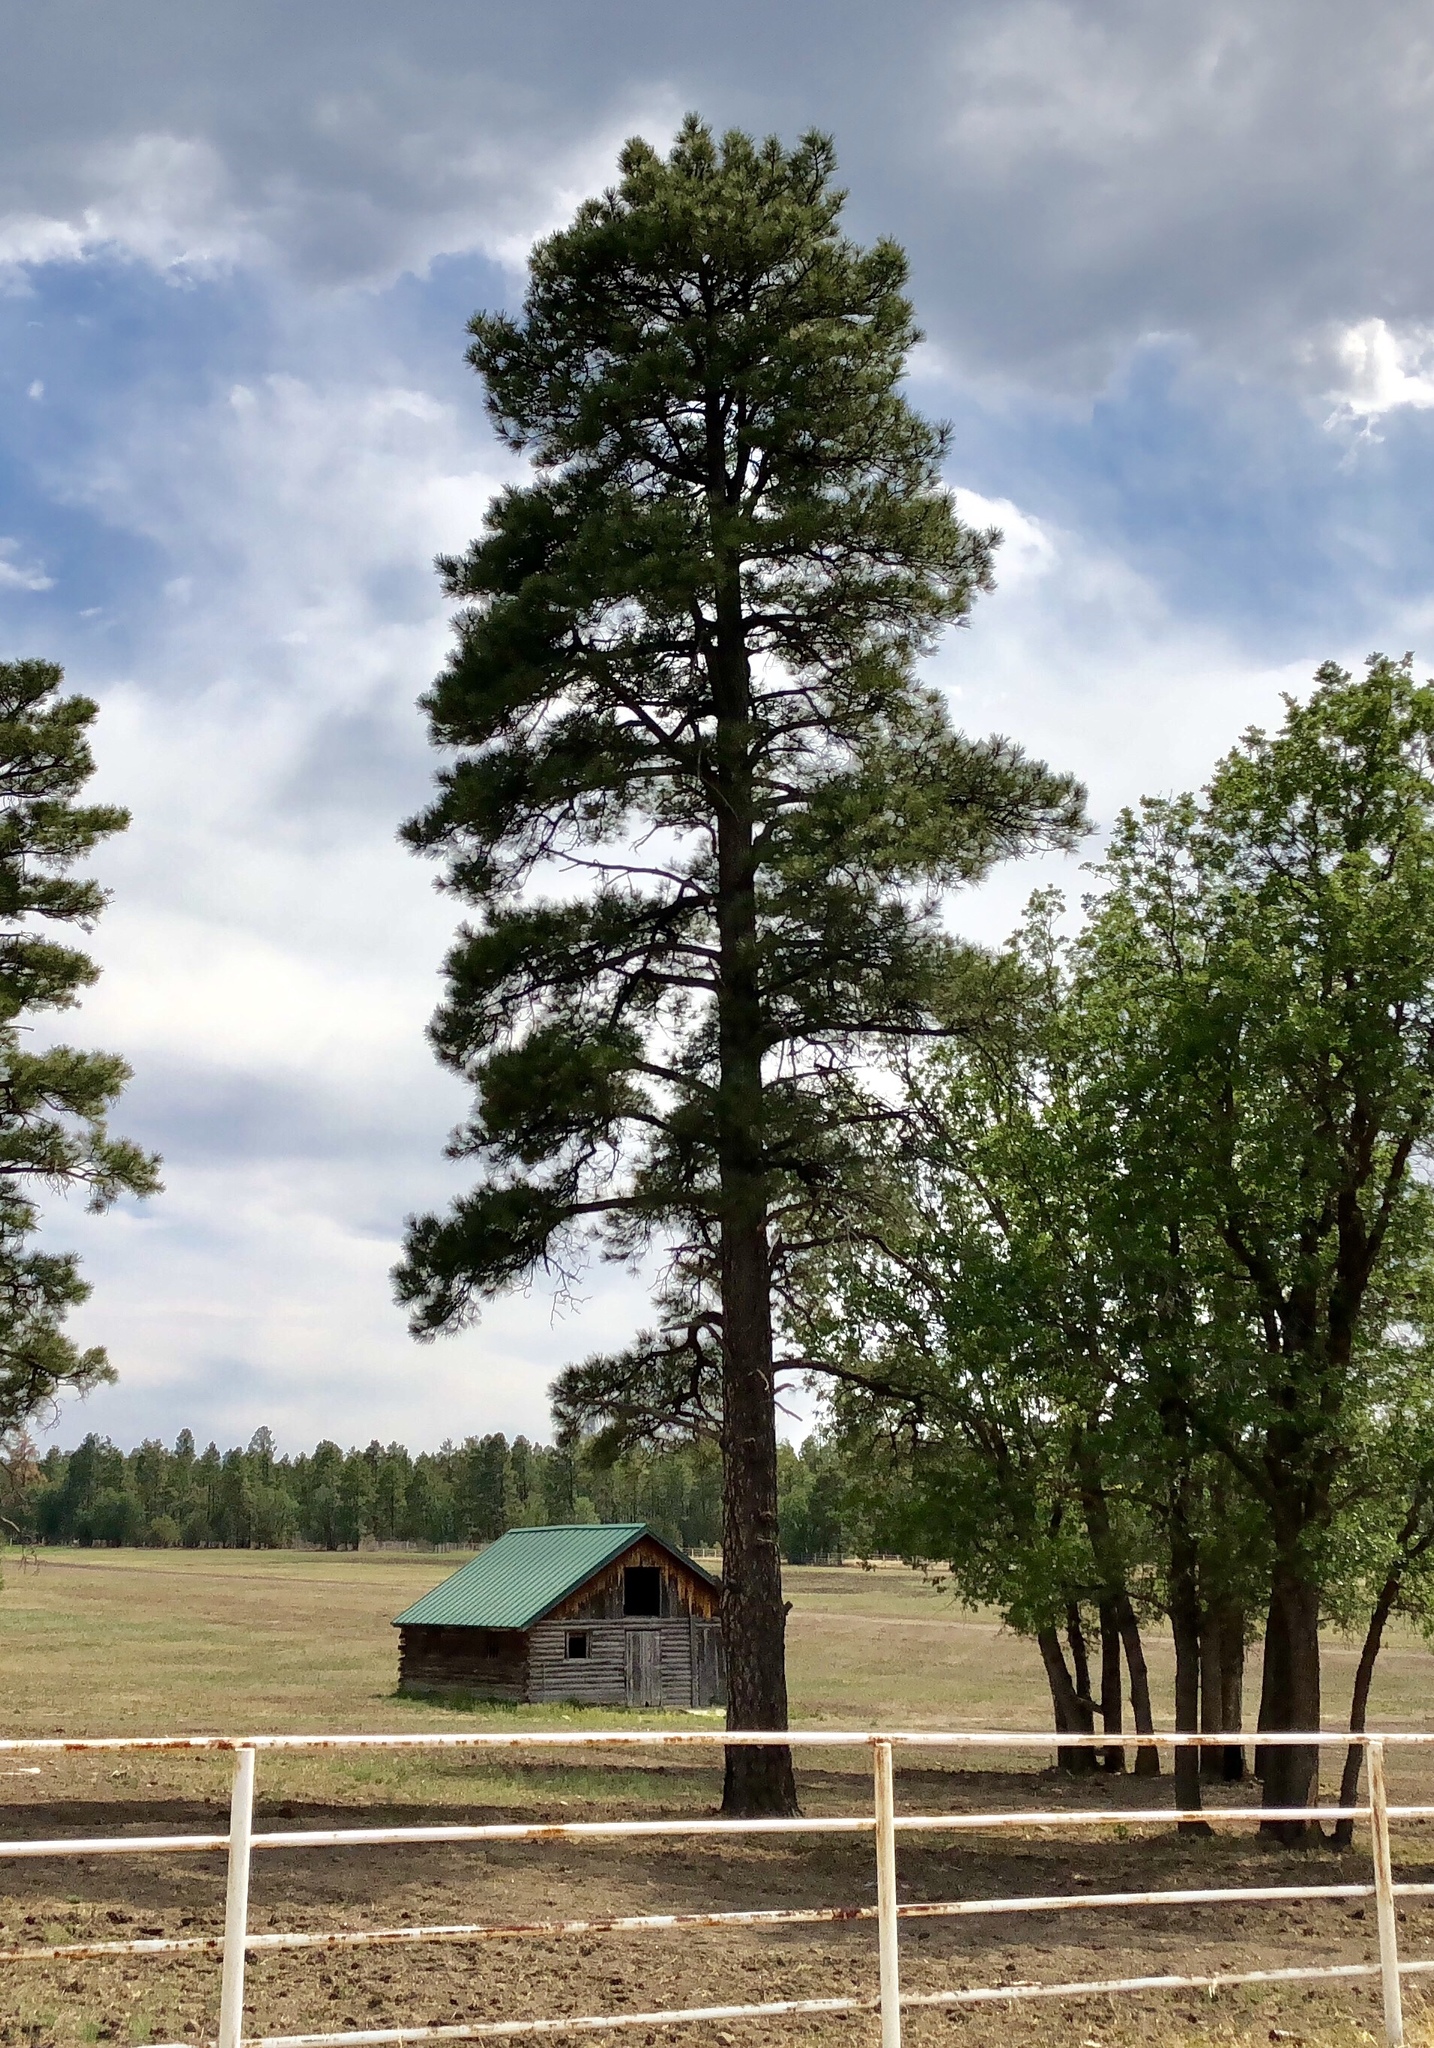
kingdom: Plantae
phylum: Tracheophyta
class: Pinopsida
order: Pinales
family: Pinaceae
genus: Pinus
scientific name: Pinus ponderosa
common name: Western yellow-pine
